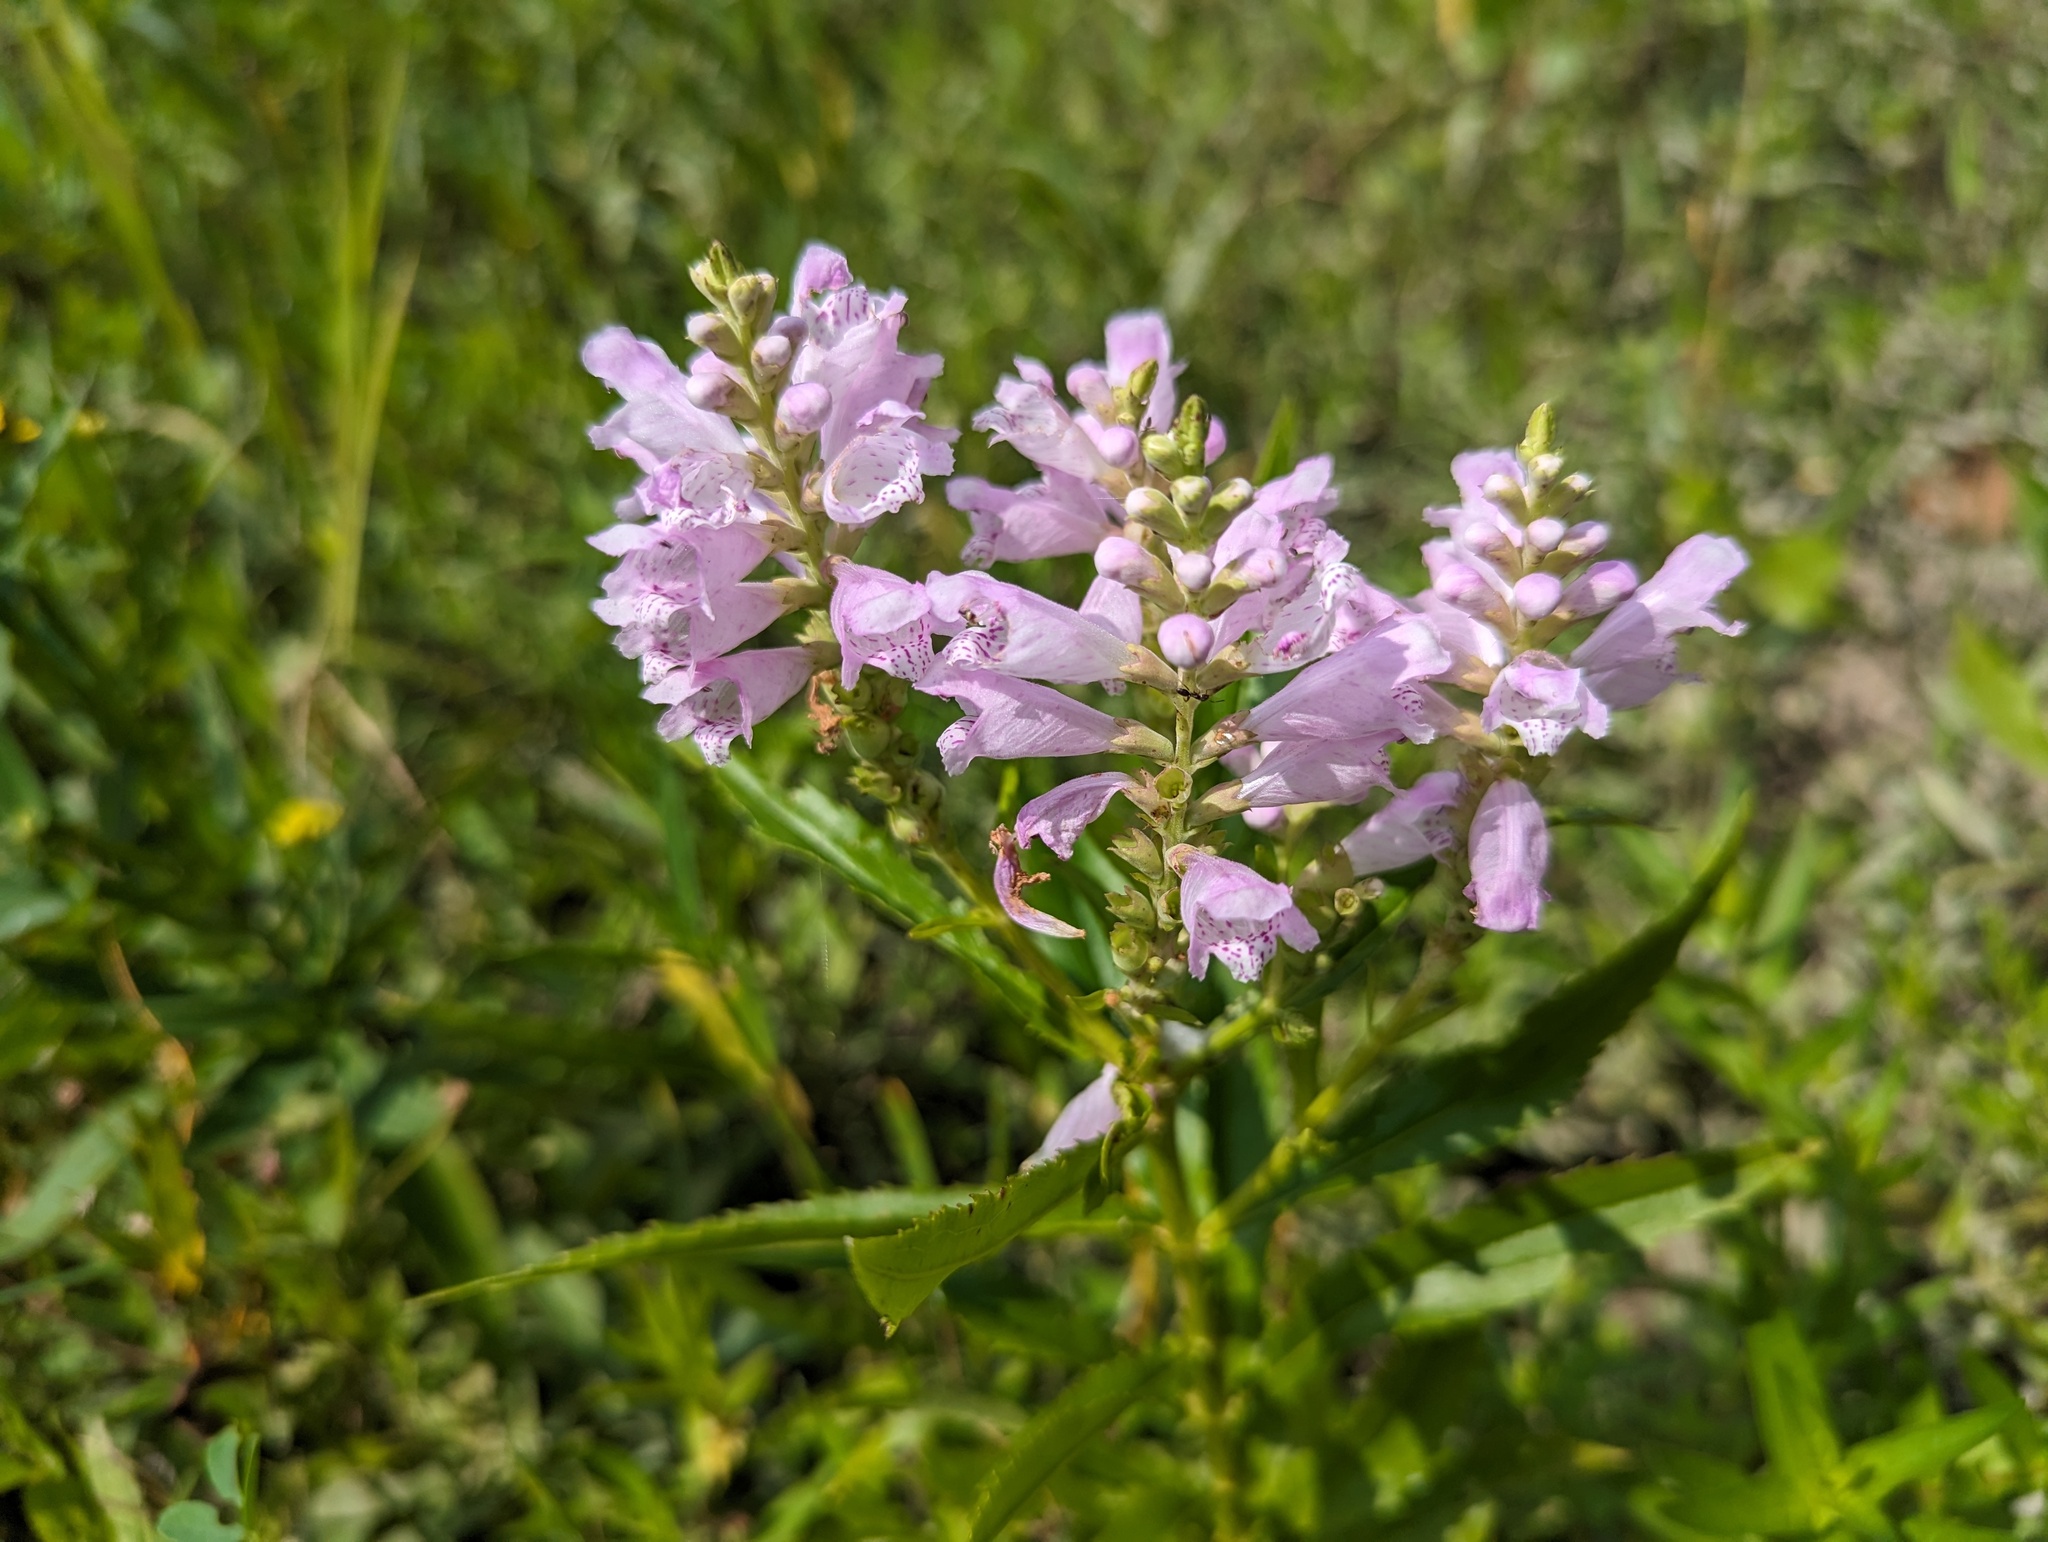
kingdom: Plantae
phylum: Tracheophyta
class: Magnoliopsida
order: Lamiales
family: Lamiaceae
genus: Physostegia
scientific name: Physostegia virginiana
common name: Obedient-plant
